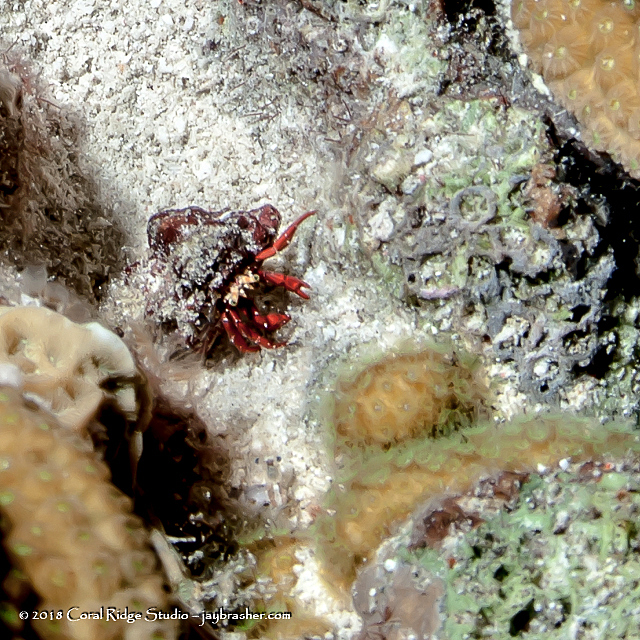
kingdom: Animalia
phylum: Arthropoda
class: Malacostraca
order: Decapoda
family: Diogenidae
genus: Paguristes
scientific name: Paguristes cadenati
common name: Red reef hermit
